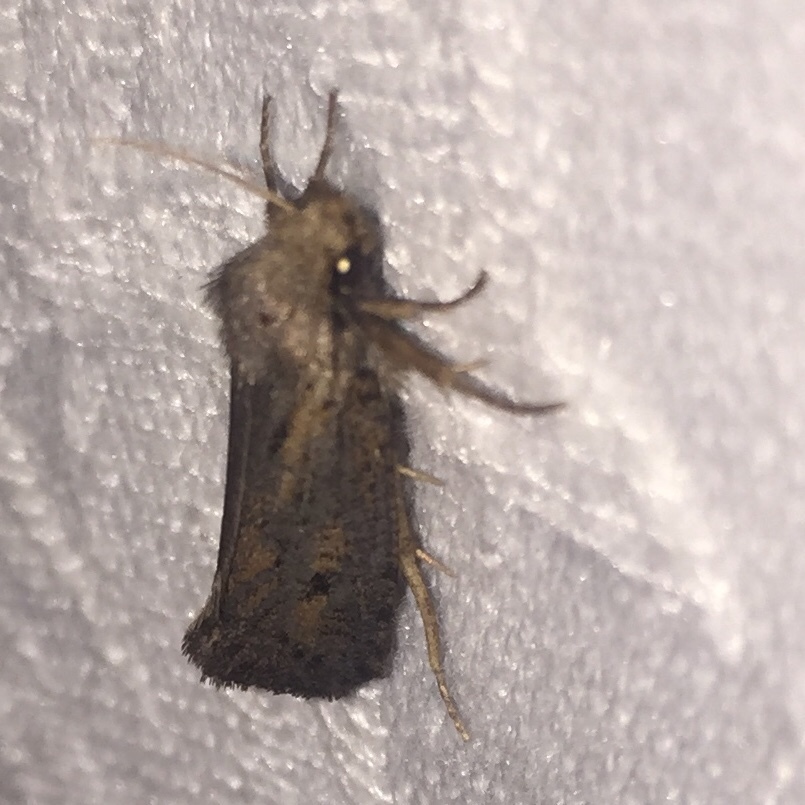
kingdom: Animalia
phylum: Arthropoda
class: Insecta
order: Lepidoptera
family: Tineidae
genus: Acrolophus
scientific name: Acrolophus popeanella
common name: Clemens' grass tubeworm moth
